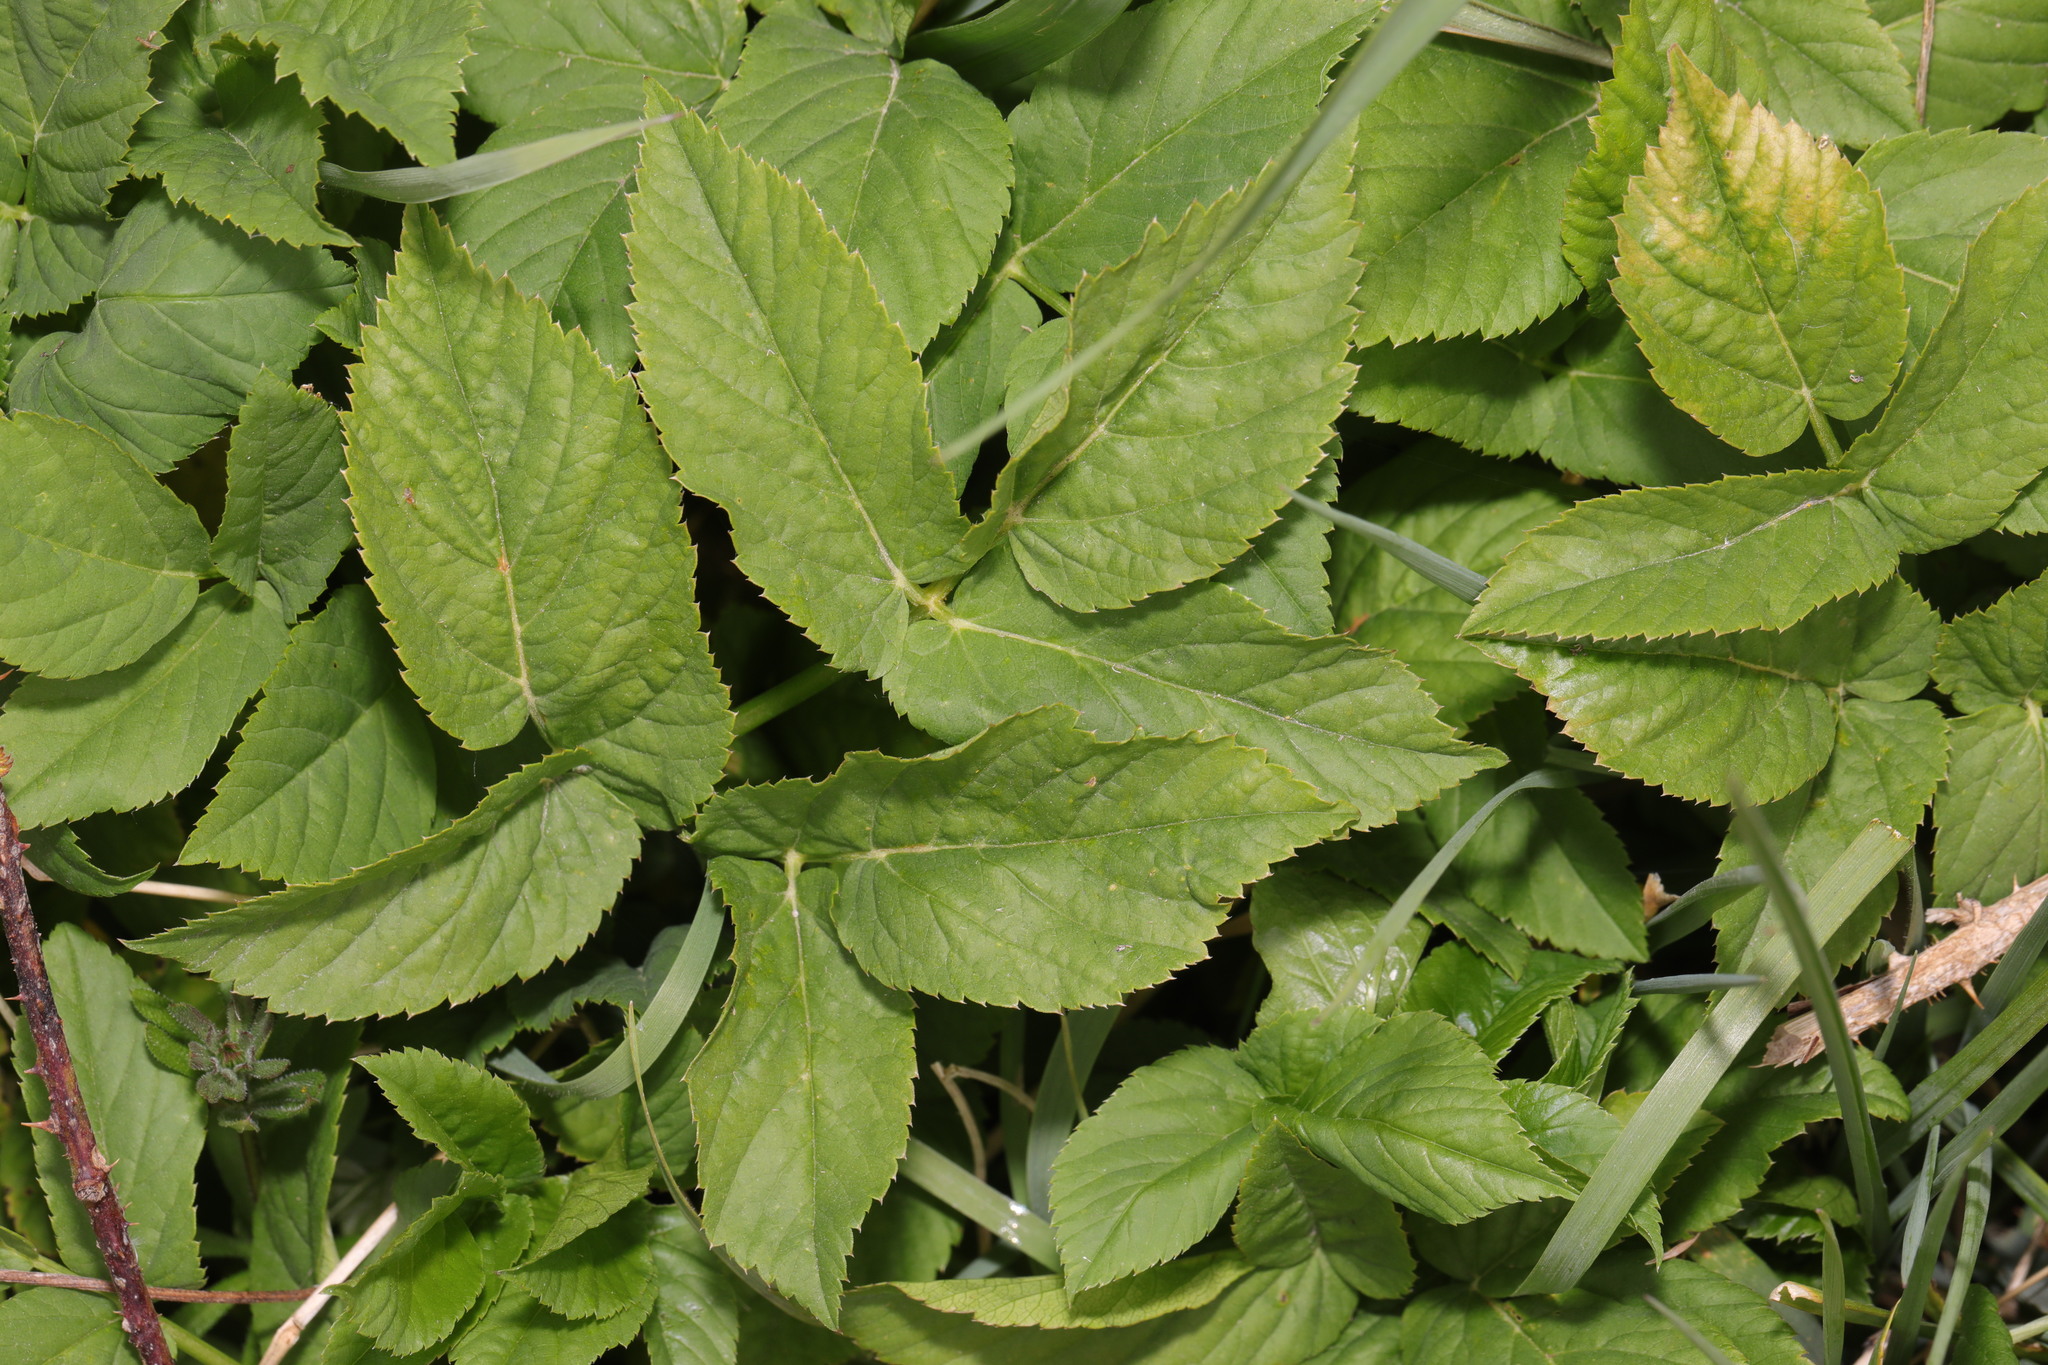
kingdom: Plantae
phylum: Tracheophyta
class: Magnoliopsida
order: Apiales
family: Apiaceae
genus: Aegopodium
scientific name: Aegopodium podagraria
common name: Ground-elder
